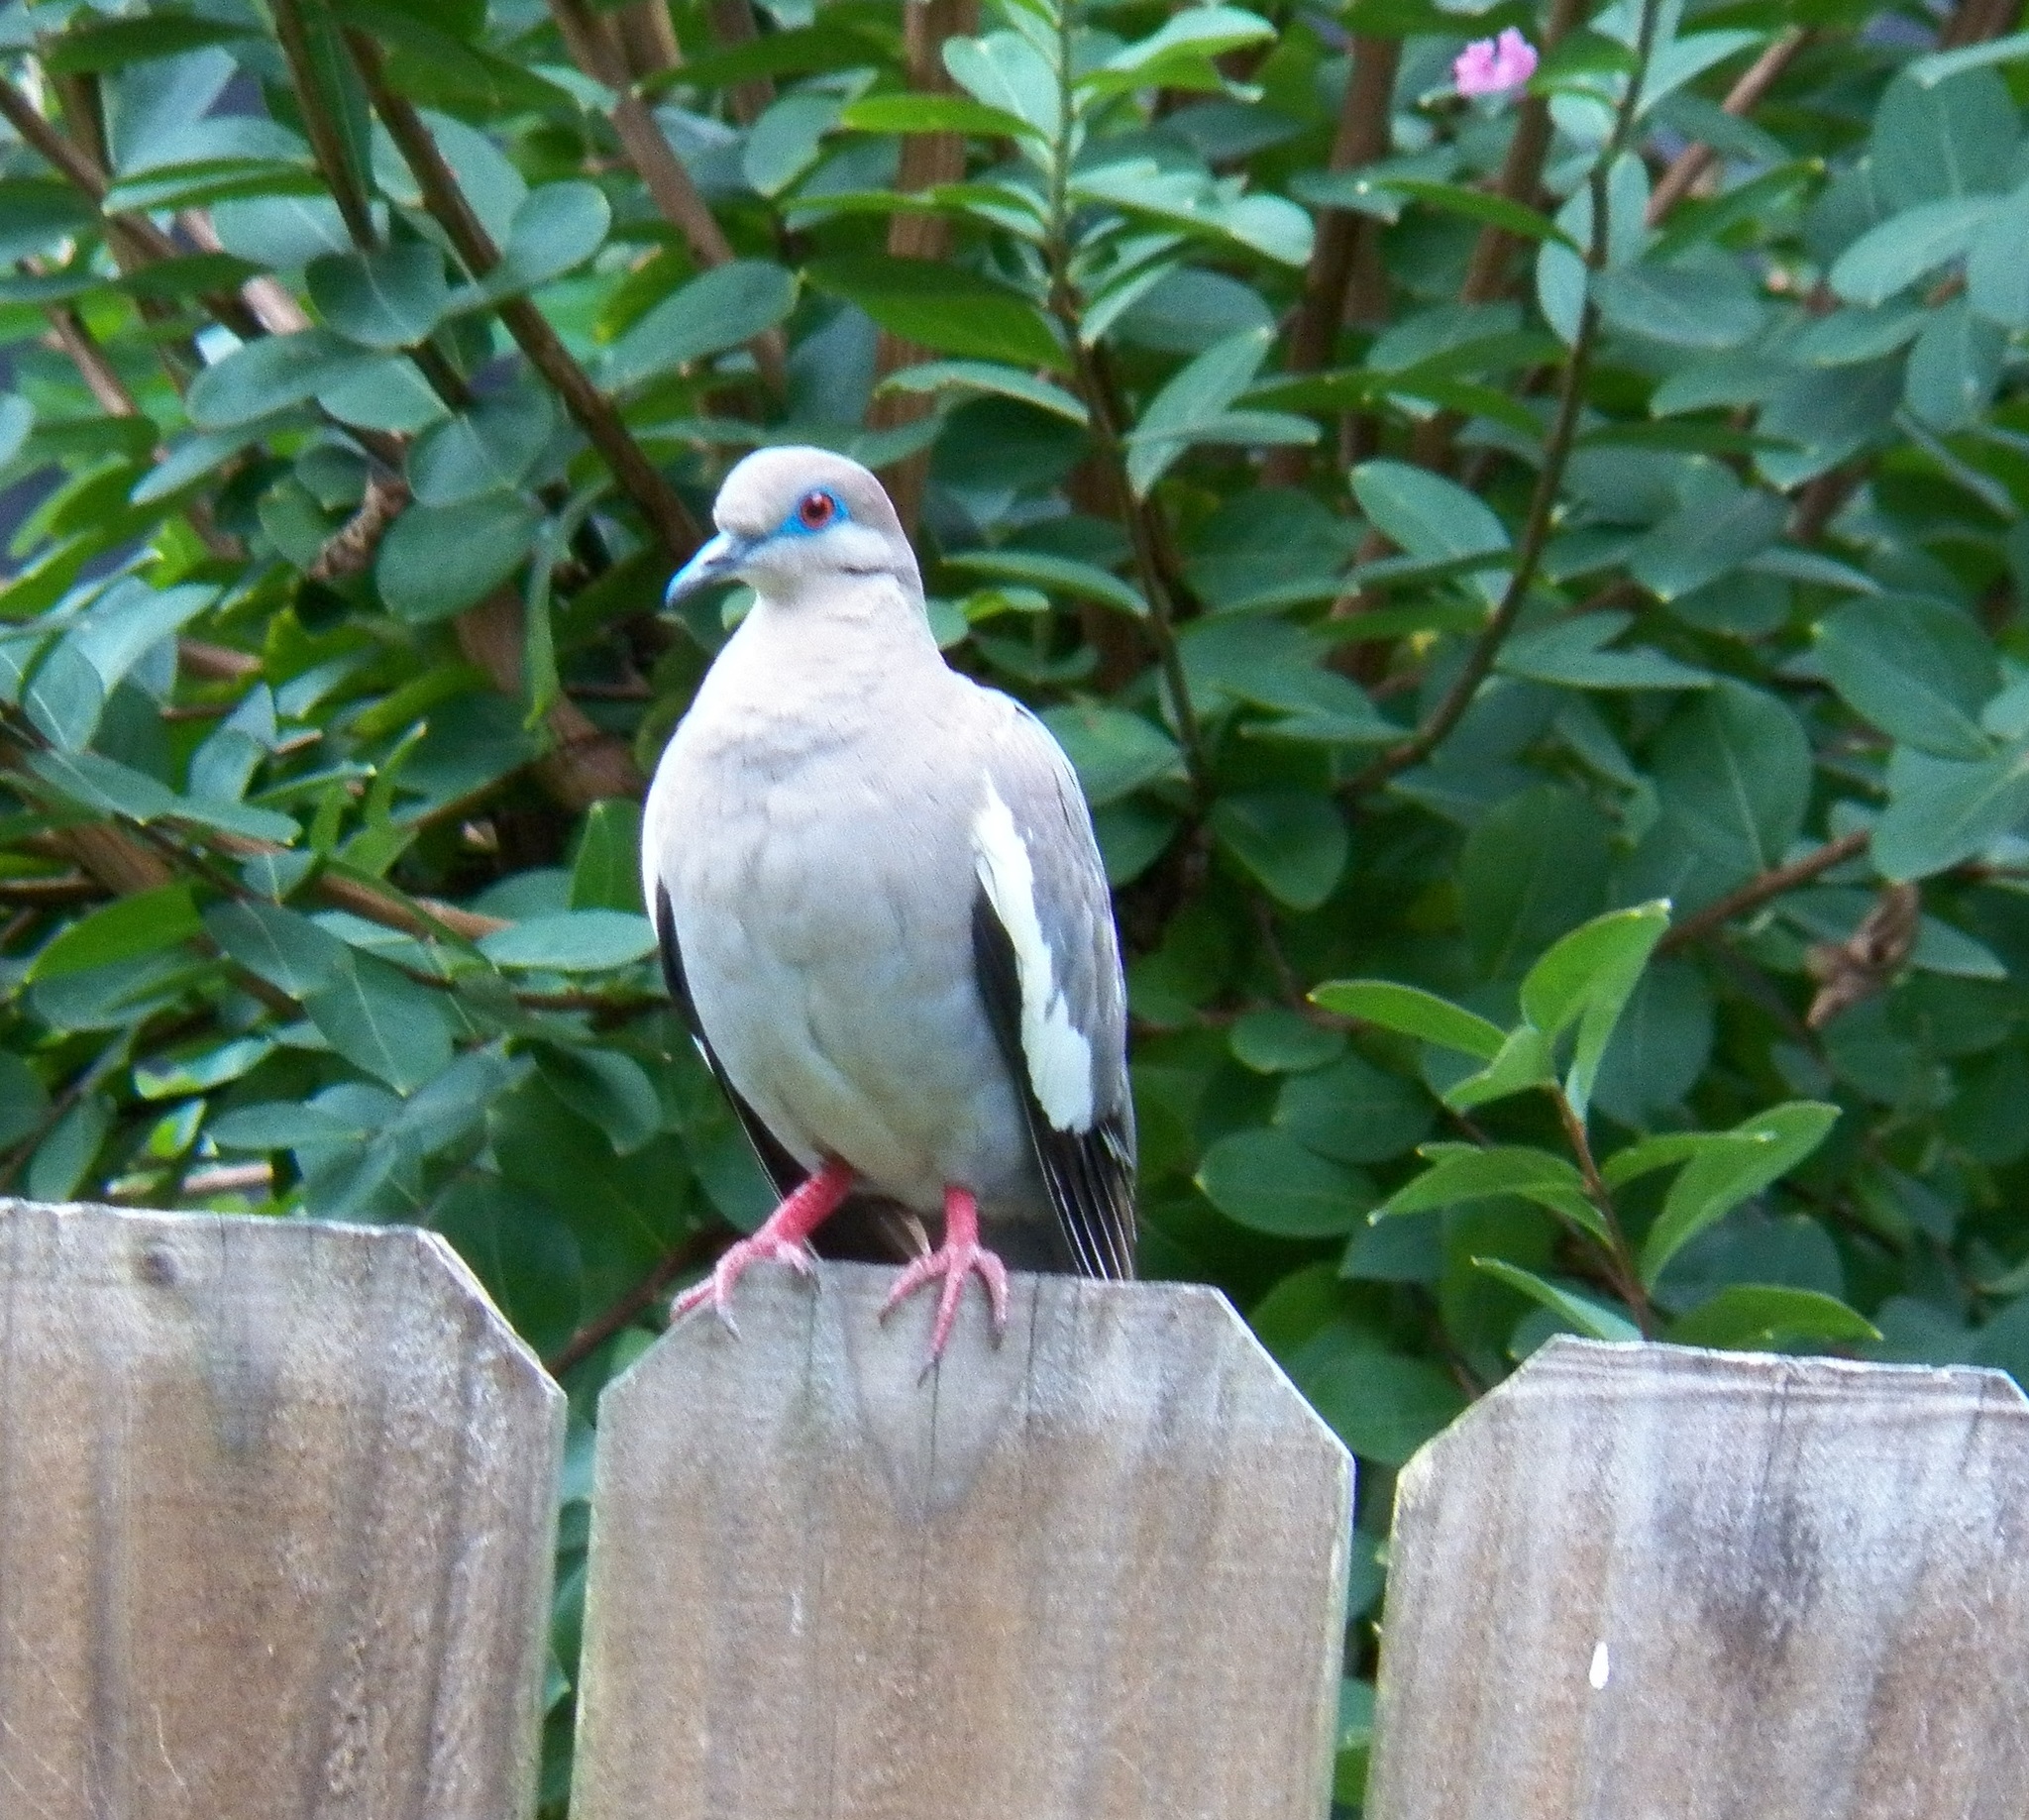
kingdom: Animalia
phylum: Chordata
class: Aves
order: Columbiformes
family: Columbidae
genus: Zenaida
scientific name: Zenaida asiatica
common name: White-winged dove
